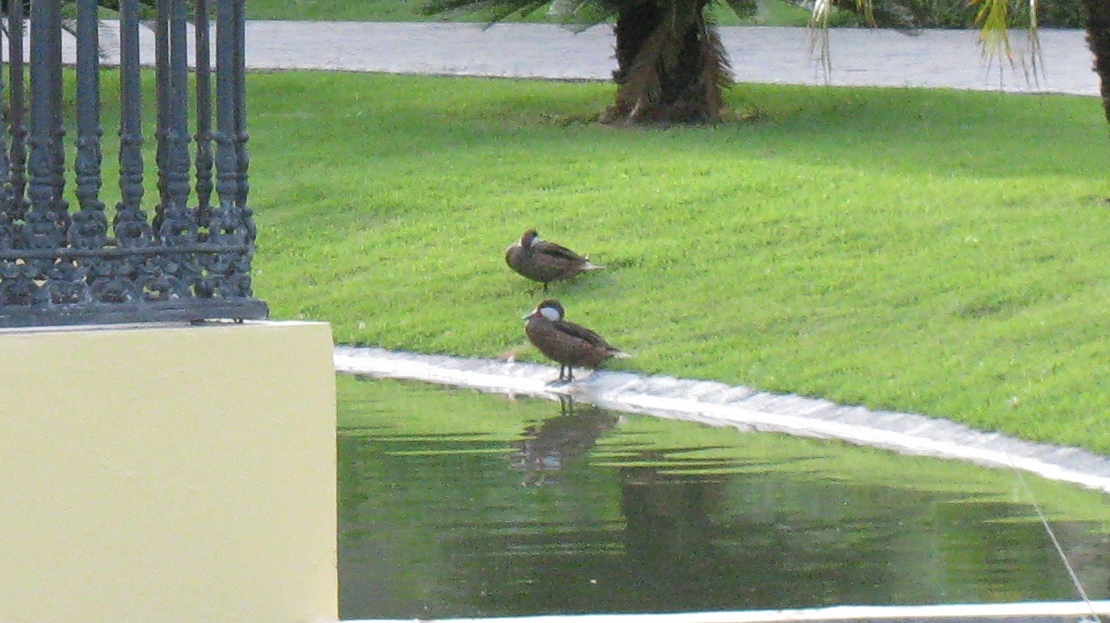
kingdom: Animalia
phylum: Chordata
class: Aves
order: Anseriformes
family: Anatidae
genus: Anas
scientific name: Anas bahamensis
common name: White-cheeked pintail
